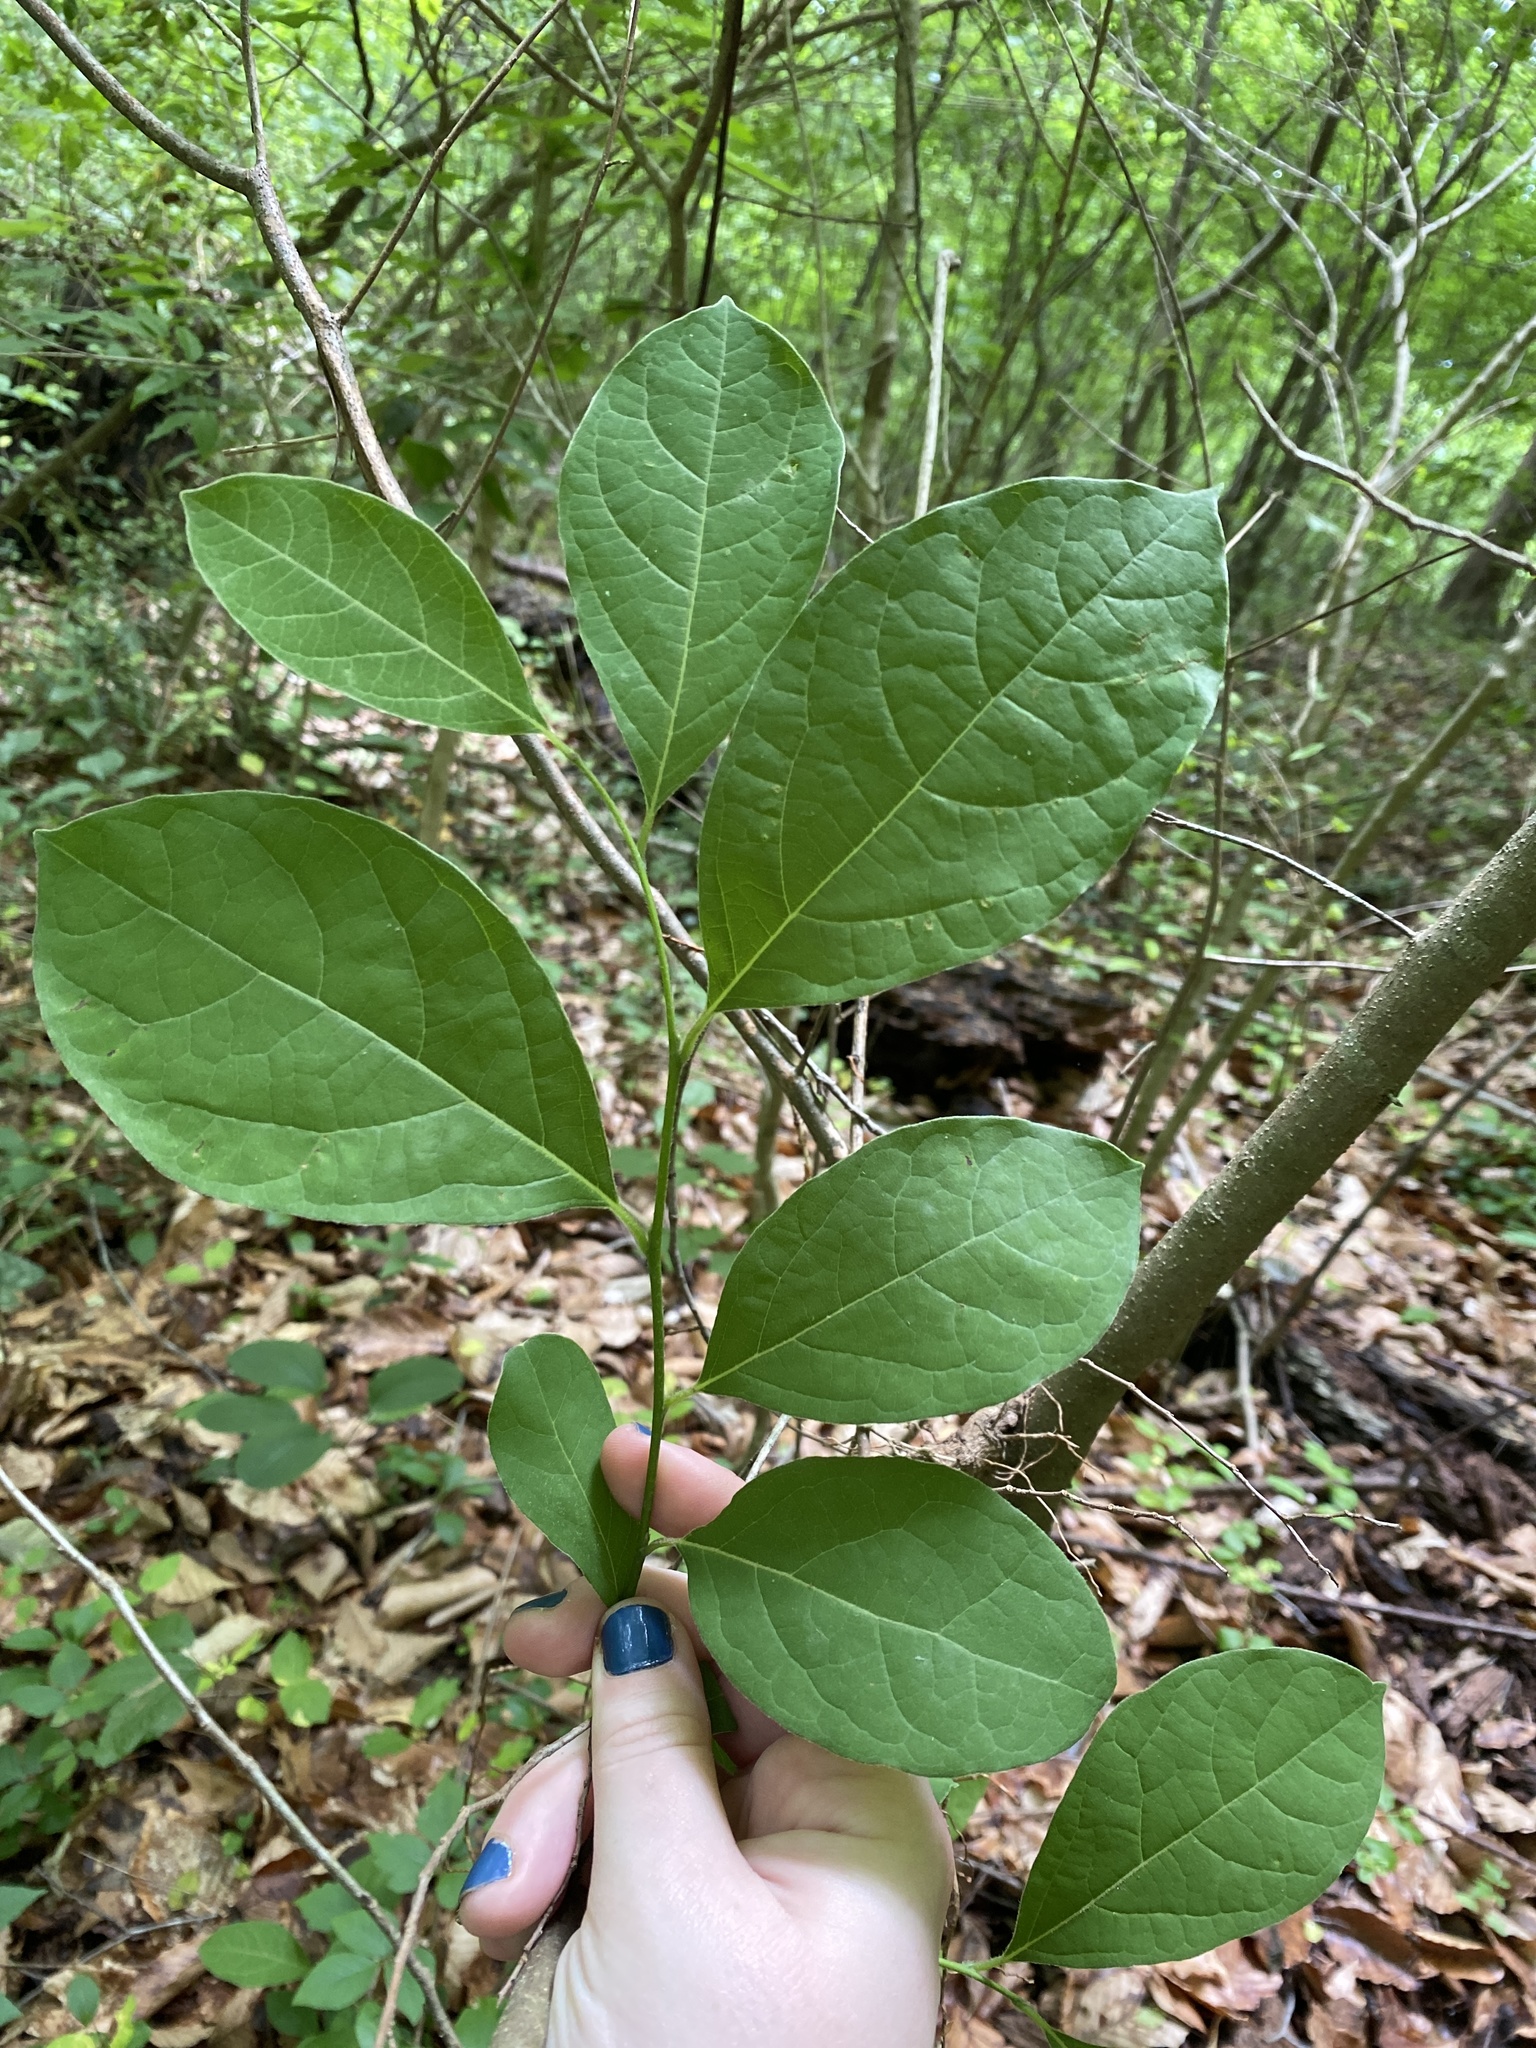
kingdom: Plantae
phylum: Tracheophyta
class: Magnoliopsida
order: Laurales
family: Lauraceae
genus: Lindera
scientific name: Lindera benzoin
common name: Spicebush
